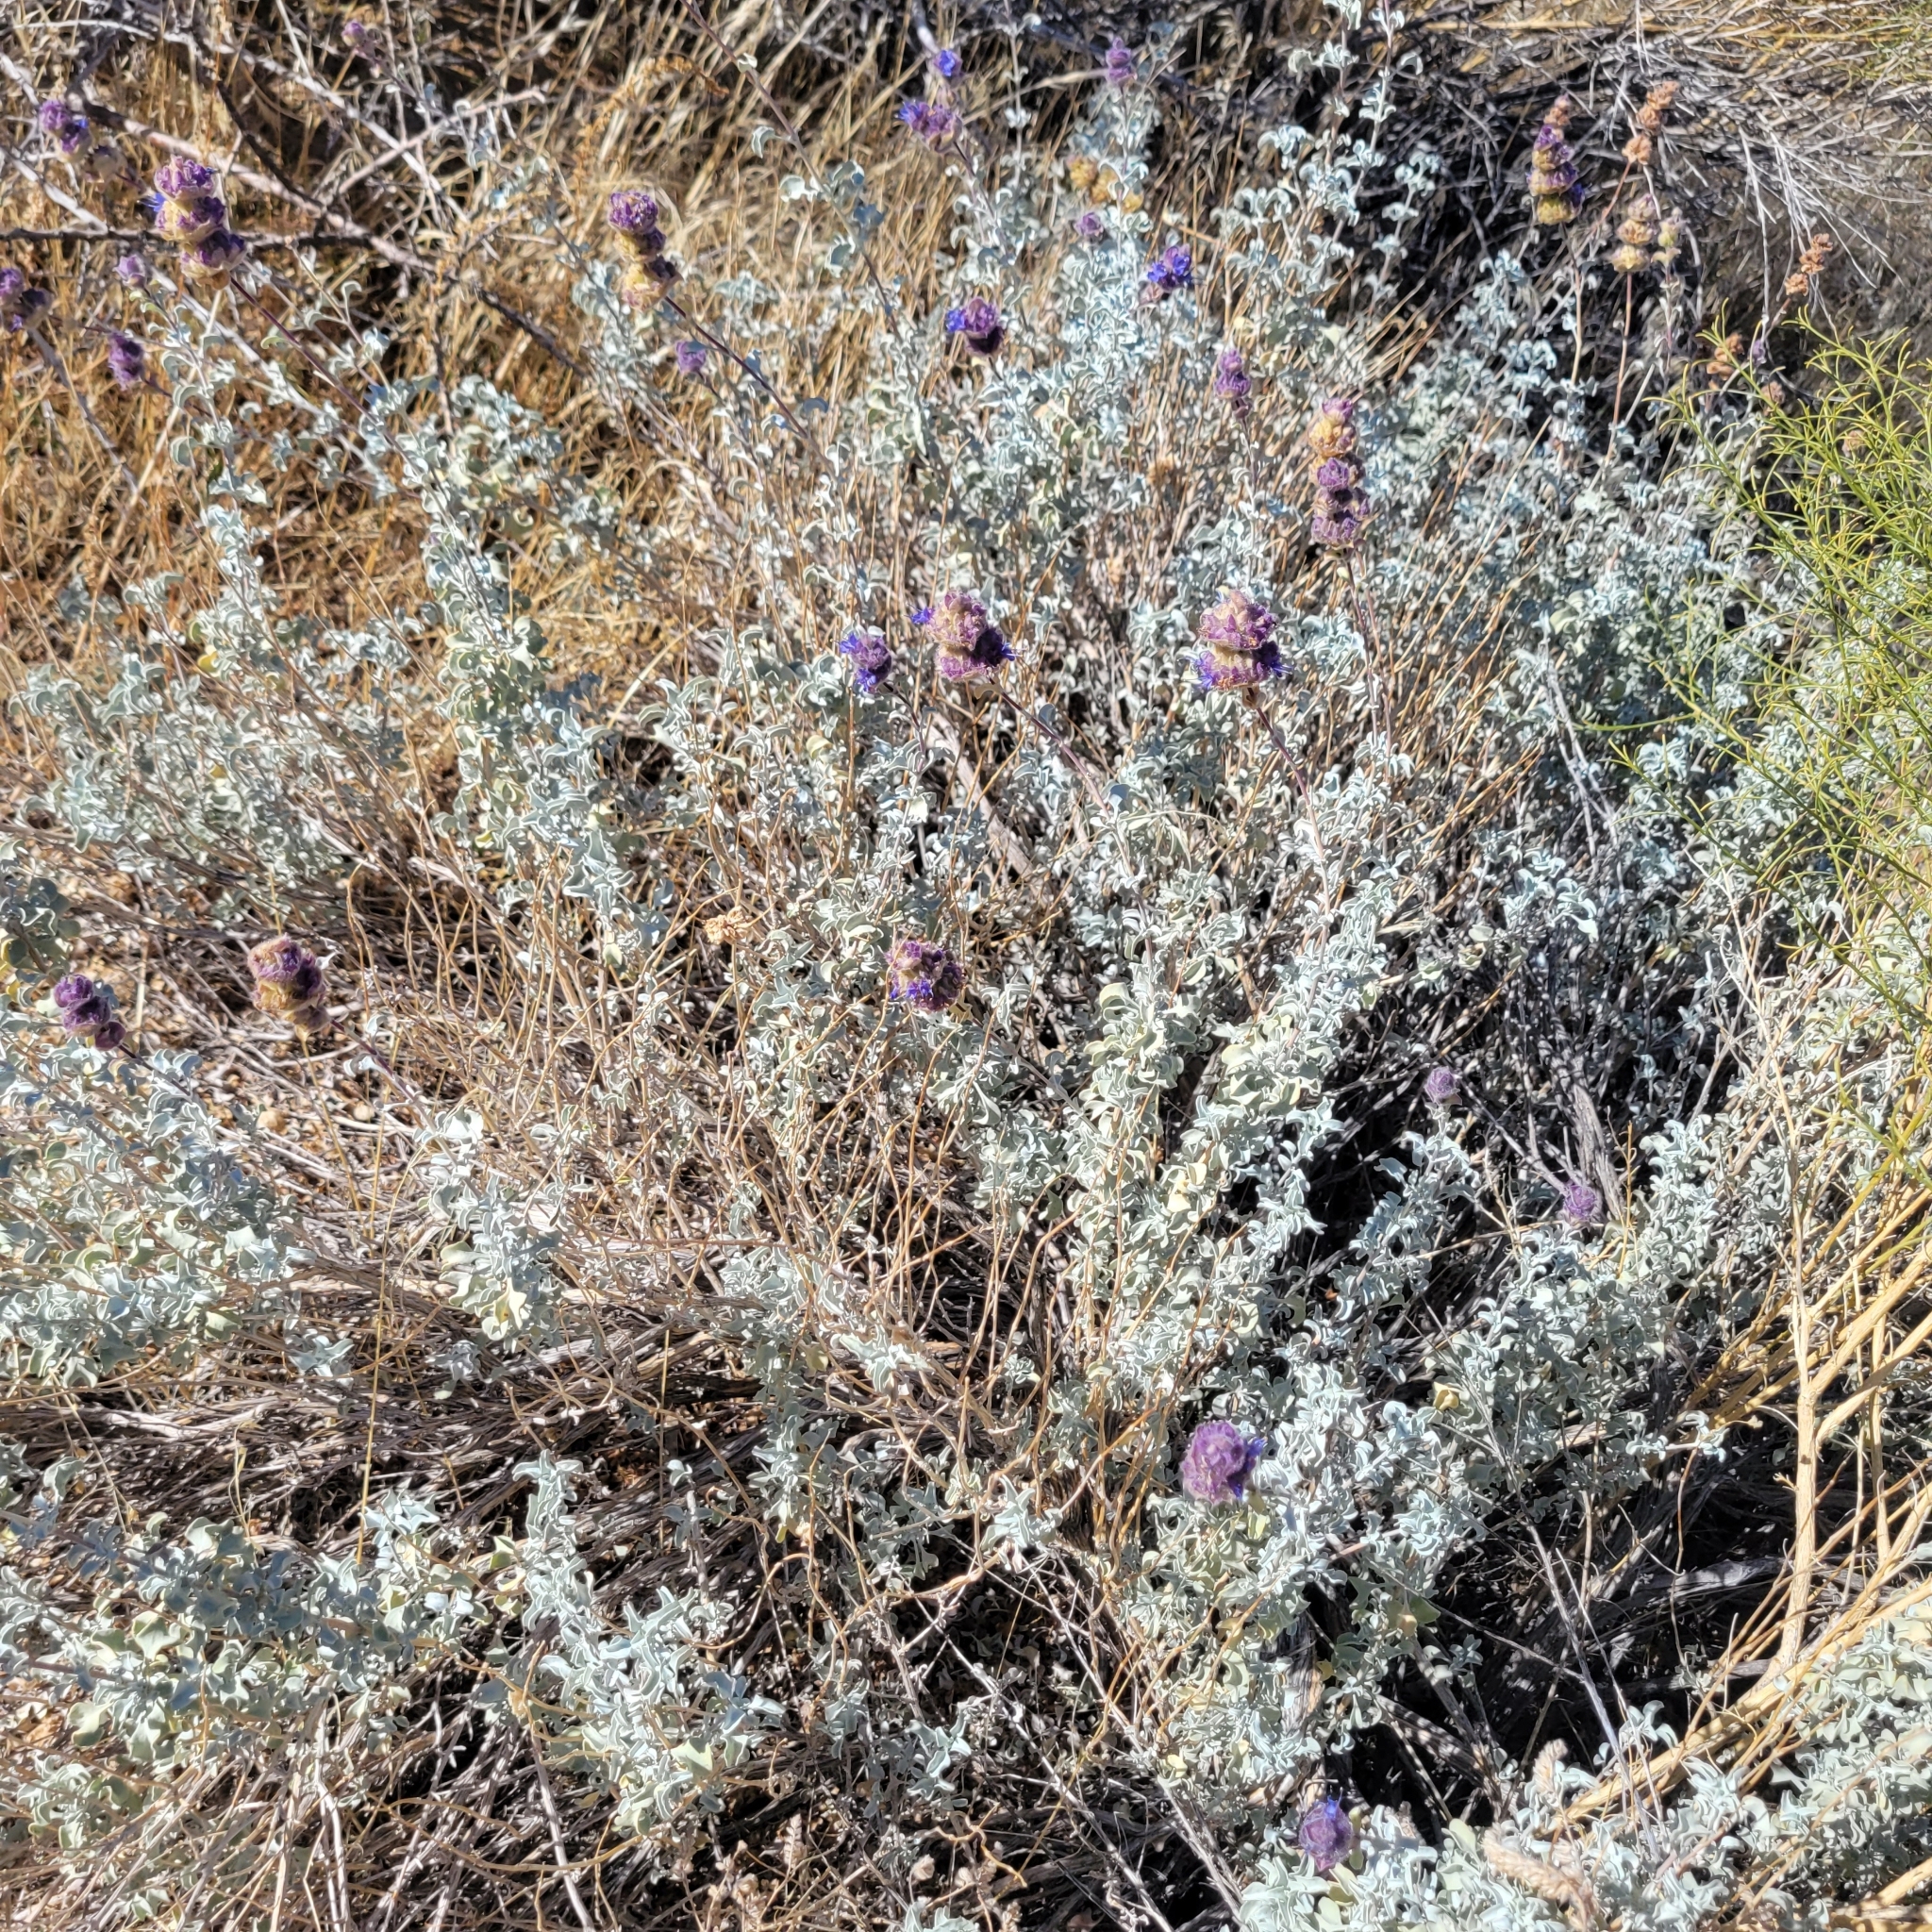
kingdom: Plantae
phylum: Tracheophyta
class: Magnoliopsida
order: Lamiales
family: Lamiaceae
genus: Salvia
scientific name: Salvia dorrii
